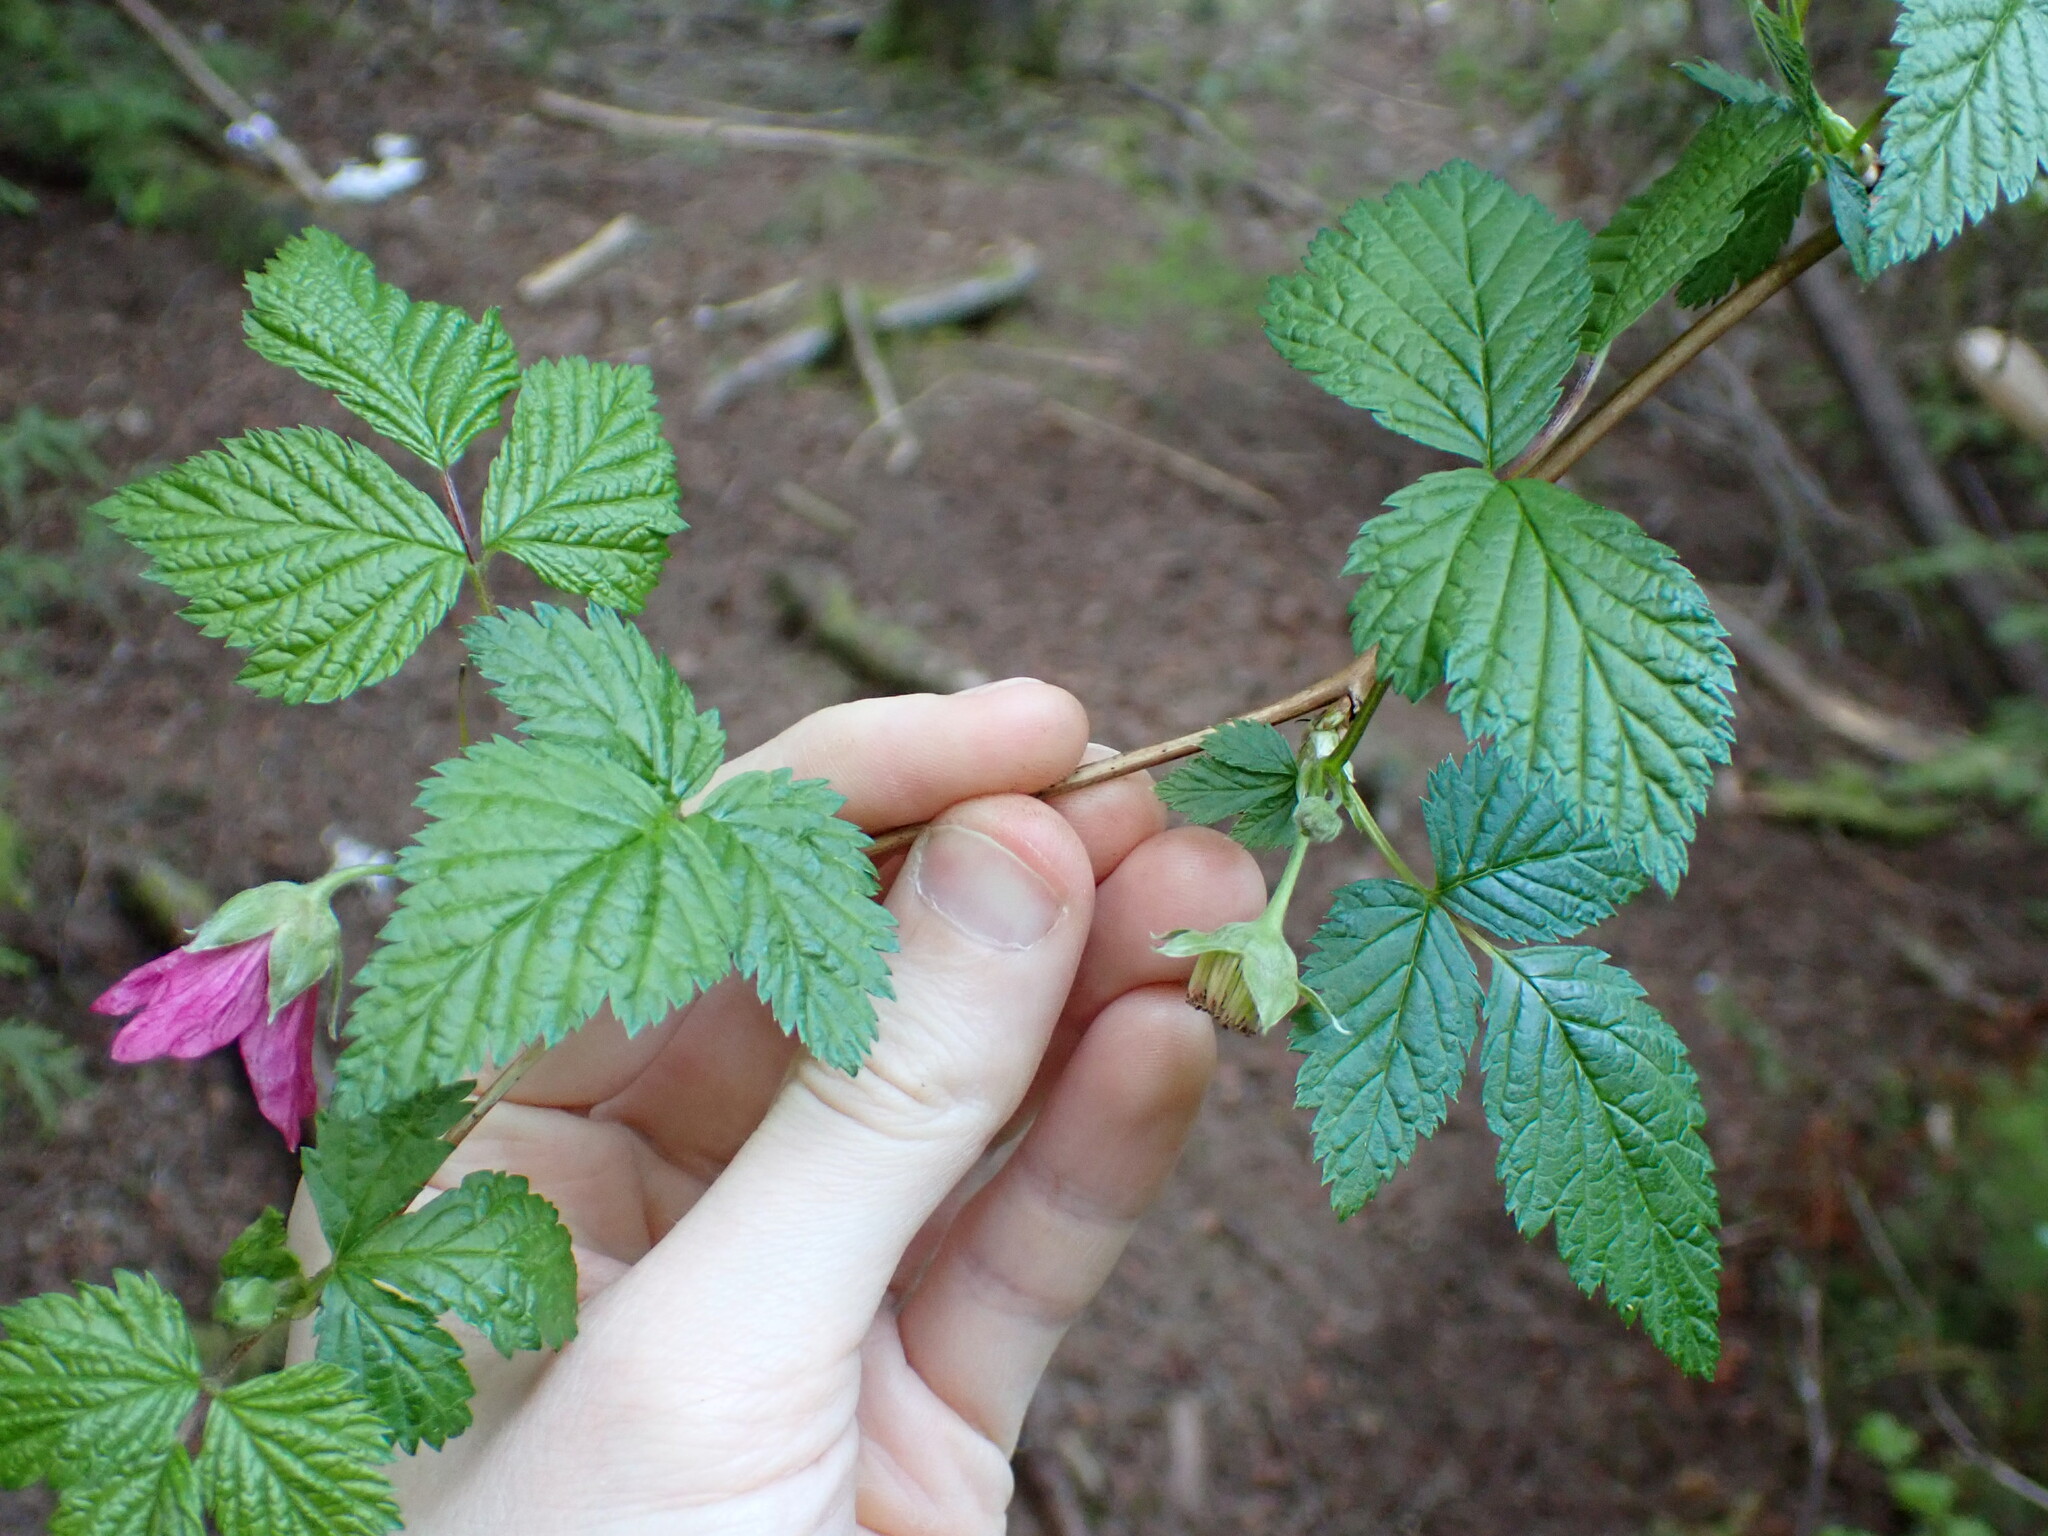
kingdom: Plantae
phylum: Tracheophyta
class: Magnoliopsida
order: Rosales
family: Rosaceae
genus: Rubus
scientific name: Rubus spectabilis
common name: Salmonberry
